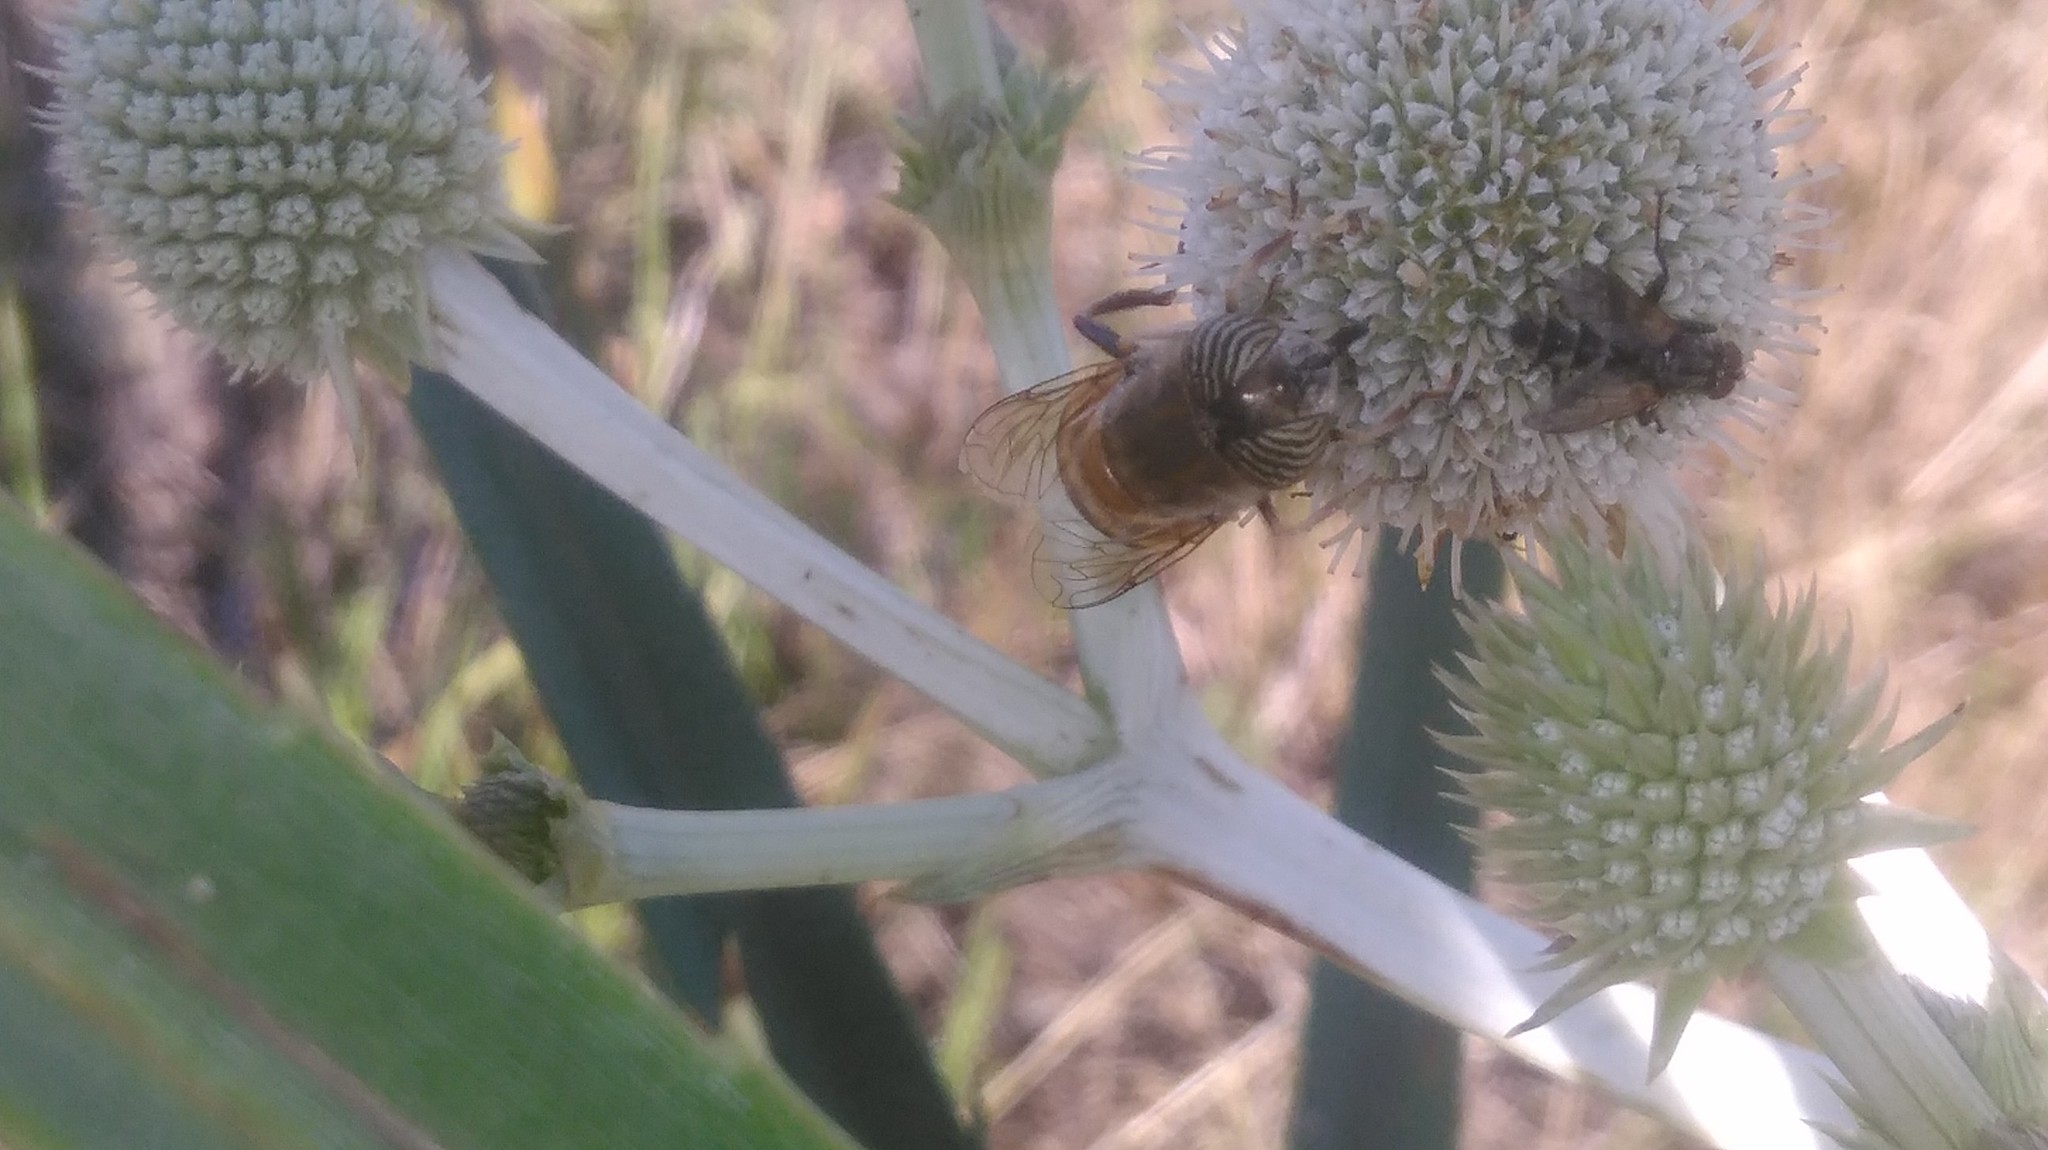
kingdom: Animalia
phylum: Arthropoda
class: Insecta
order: Diptera
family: Syrphidae
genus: Eristalinus
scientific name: Eristalinus taeniops
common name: Syrphid fly
